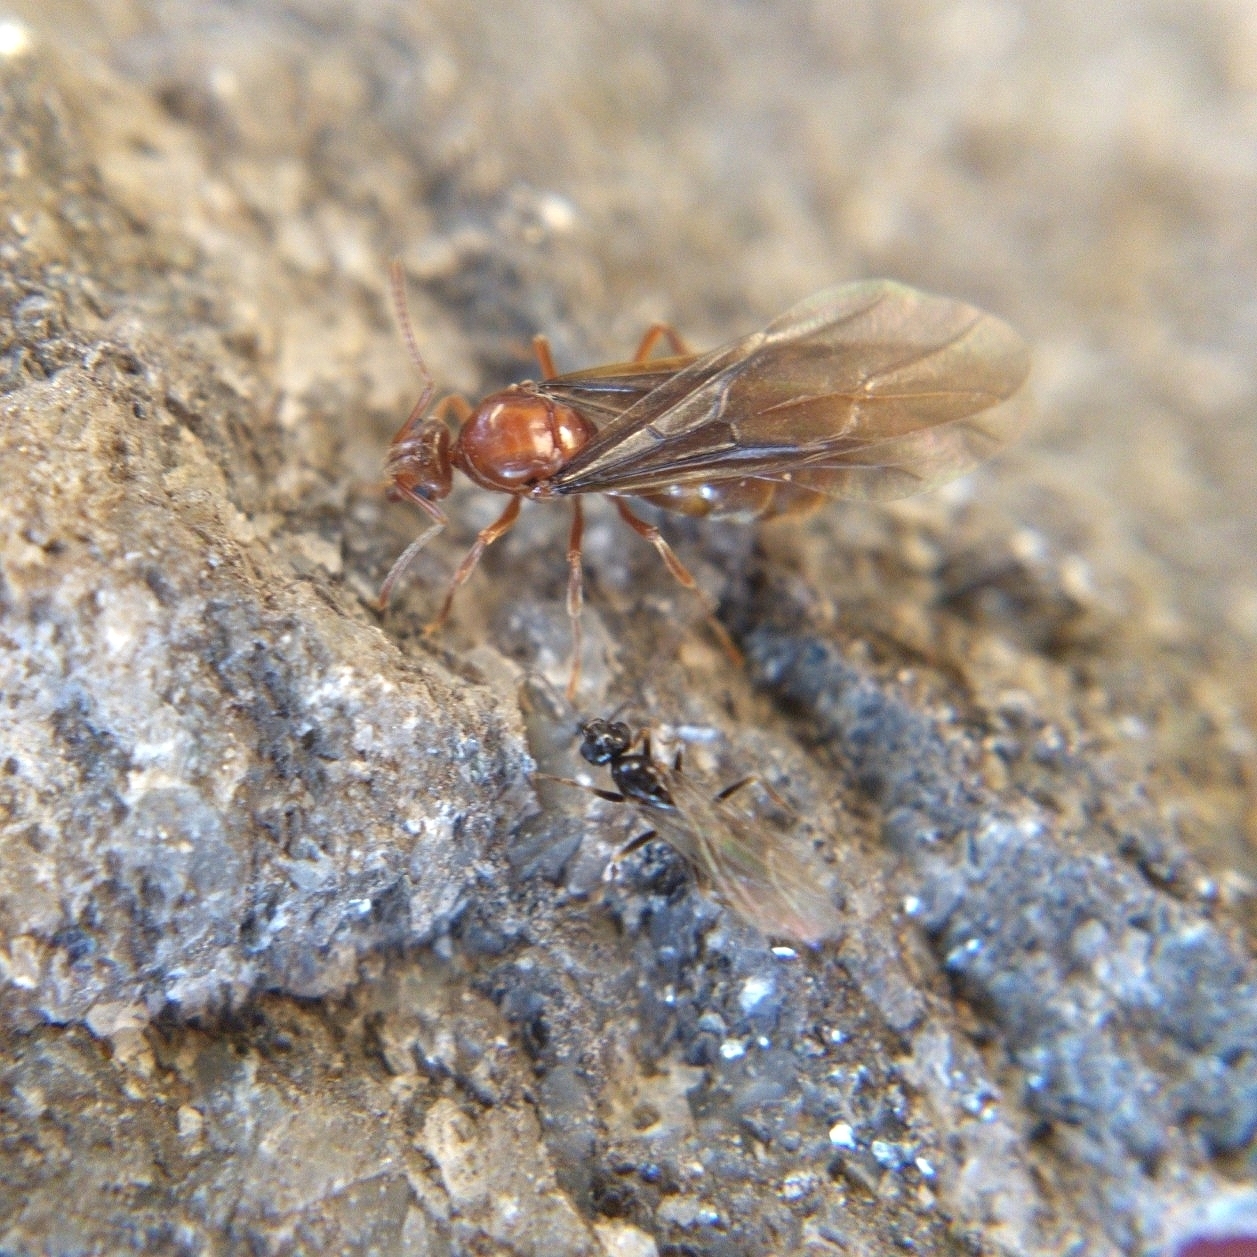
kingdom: Animalia
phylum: Arthropoda
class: Insecta
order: Hymenoptera
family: Formicidae
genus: Prenolepis
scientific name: Prenolepis imparis
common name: Small honey ant
